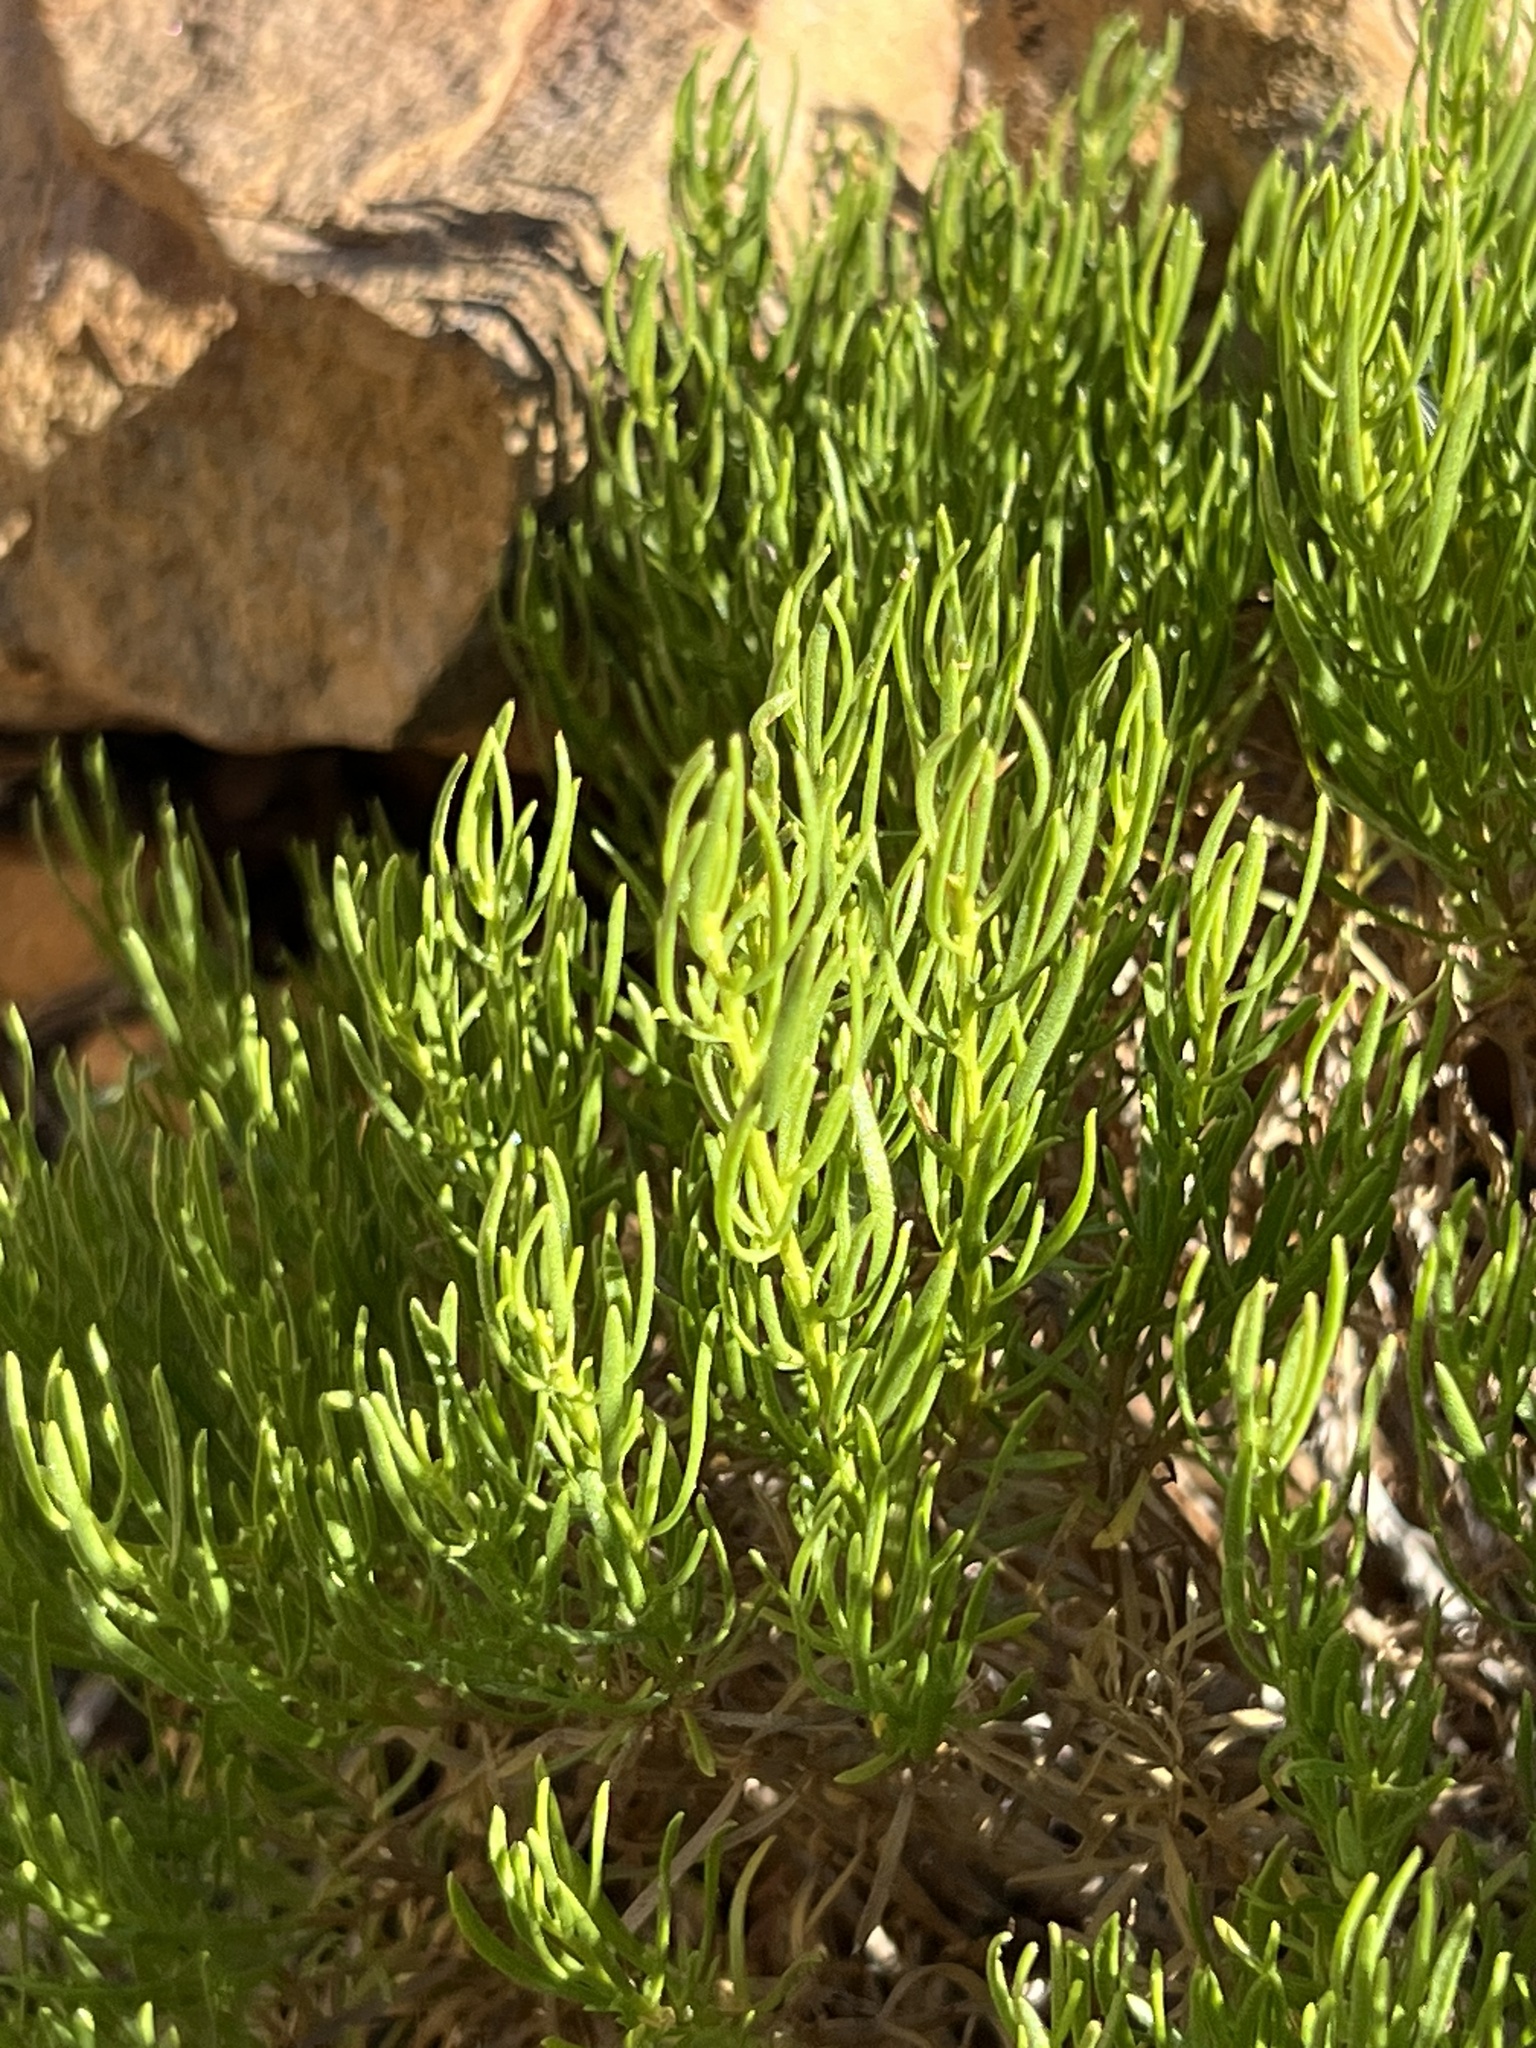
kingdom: Plantae
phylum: Tracheophyta
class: Magnoliopsida
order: Asterales
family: Asteraceae
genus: Peucephyllum
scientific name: Peucephyllum schottii
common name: Pygmy-cedar
